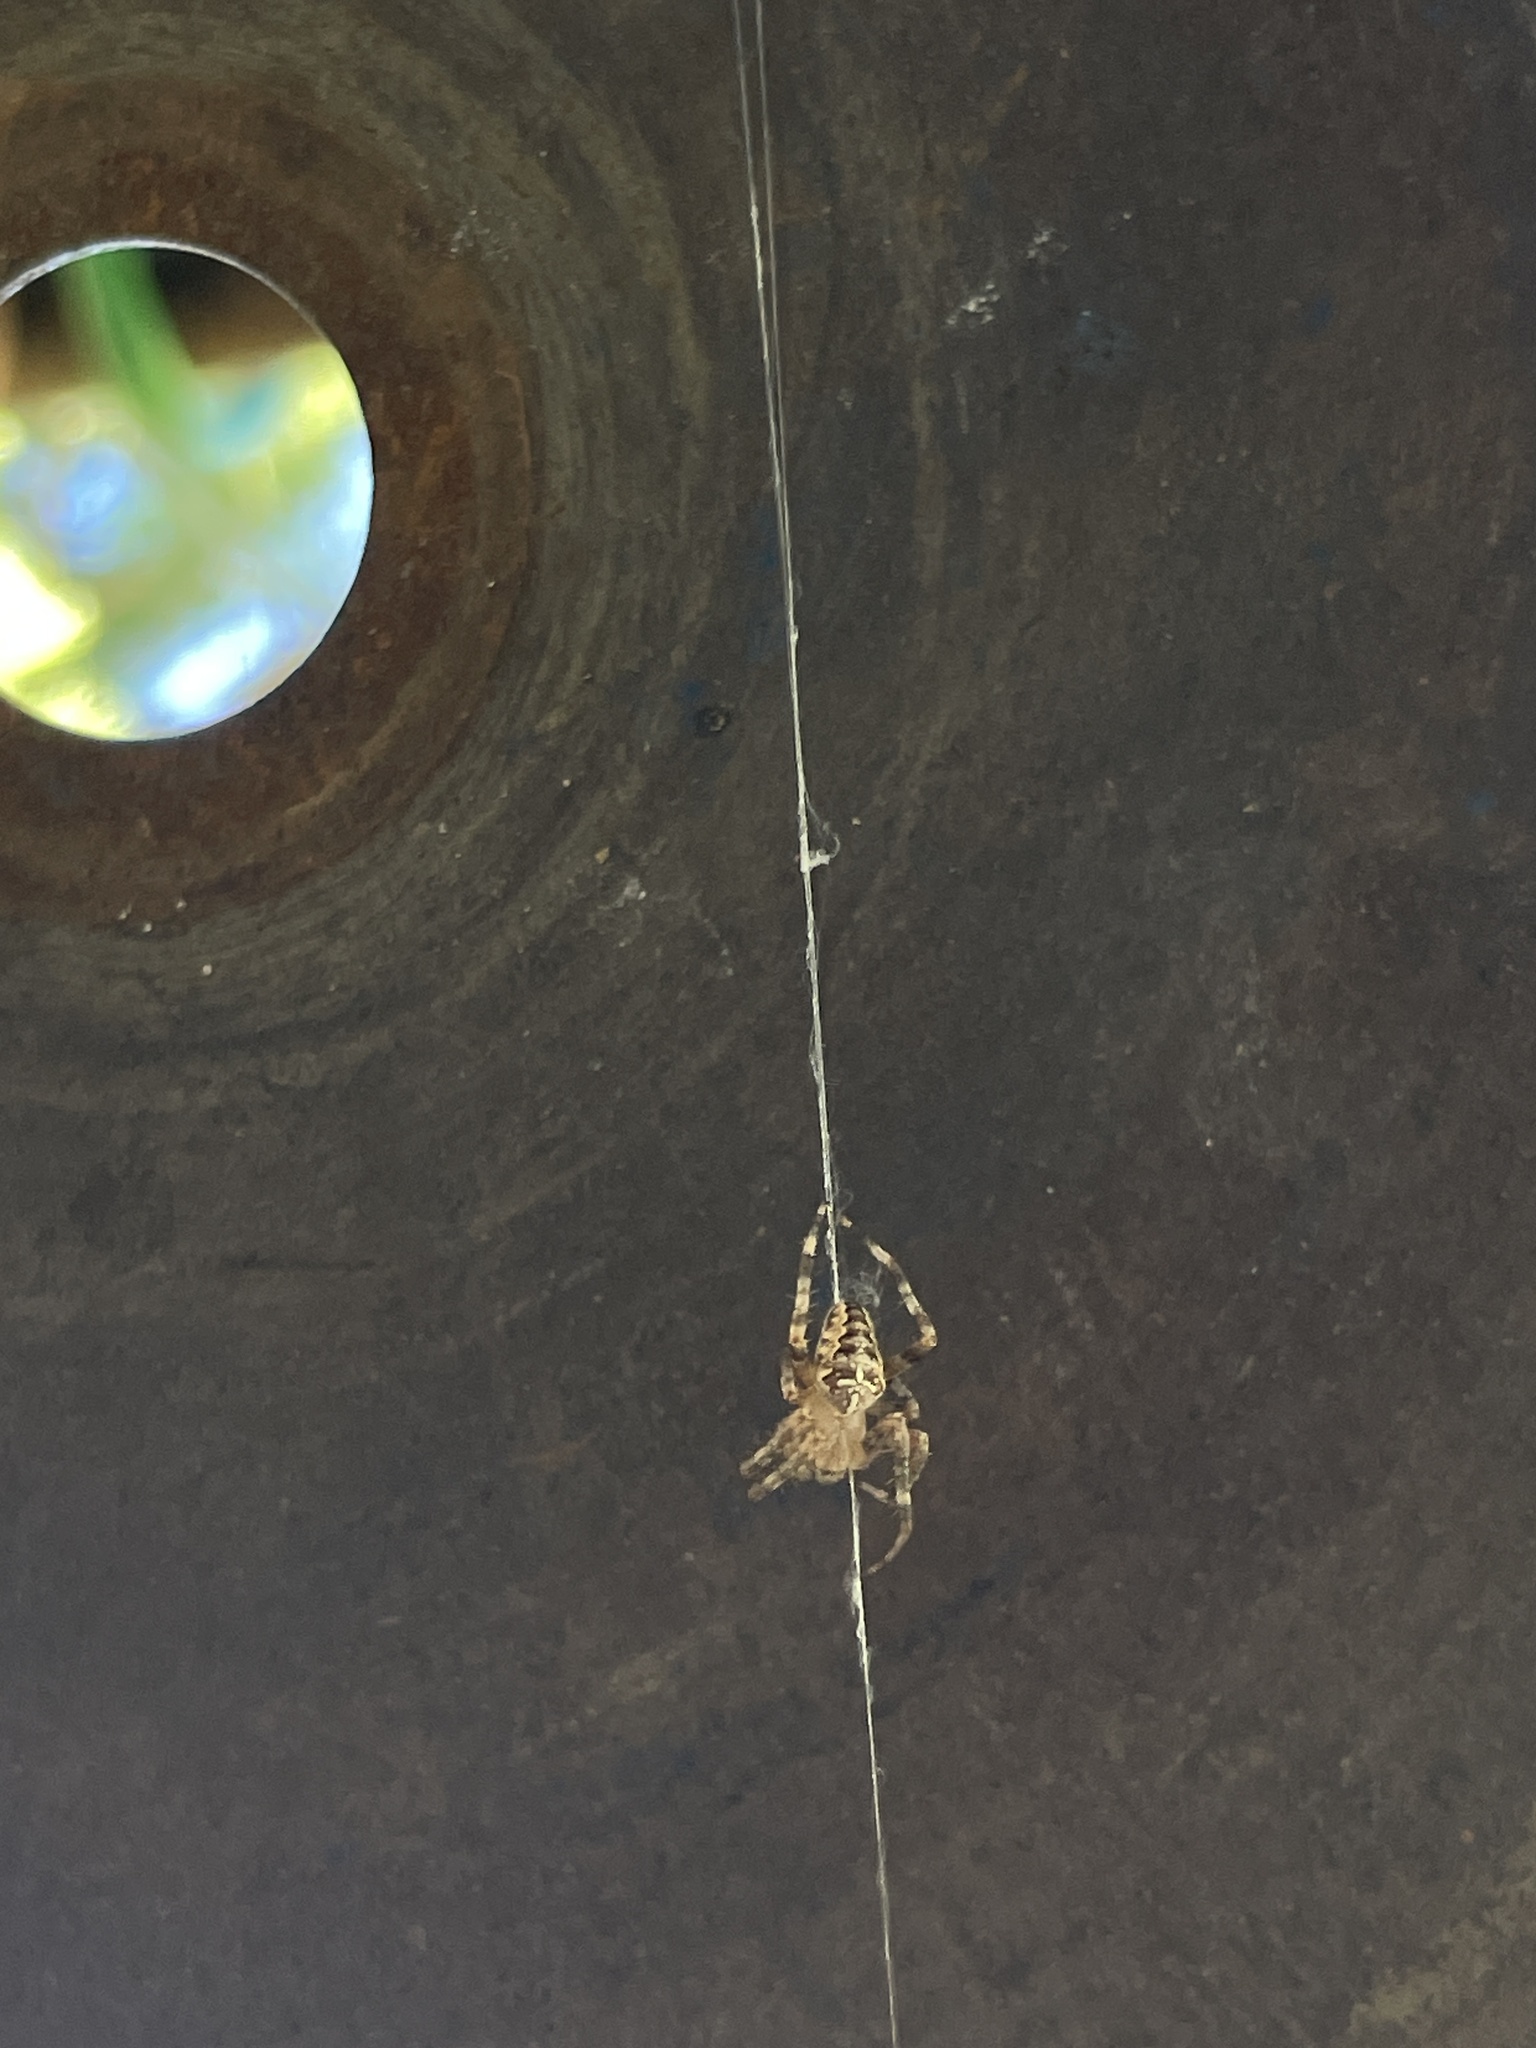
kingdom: Animalia
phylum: Arthropoda
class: Arachnida
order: Araneae
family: Araneidae
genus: Araneus
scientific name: Araneus diadematus
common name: Cross orbweaver
